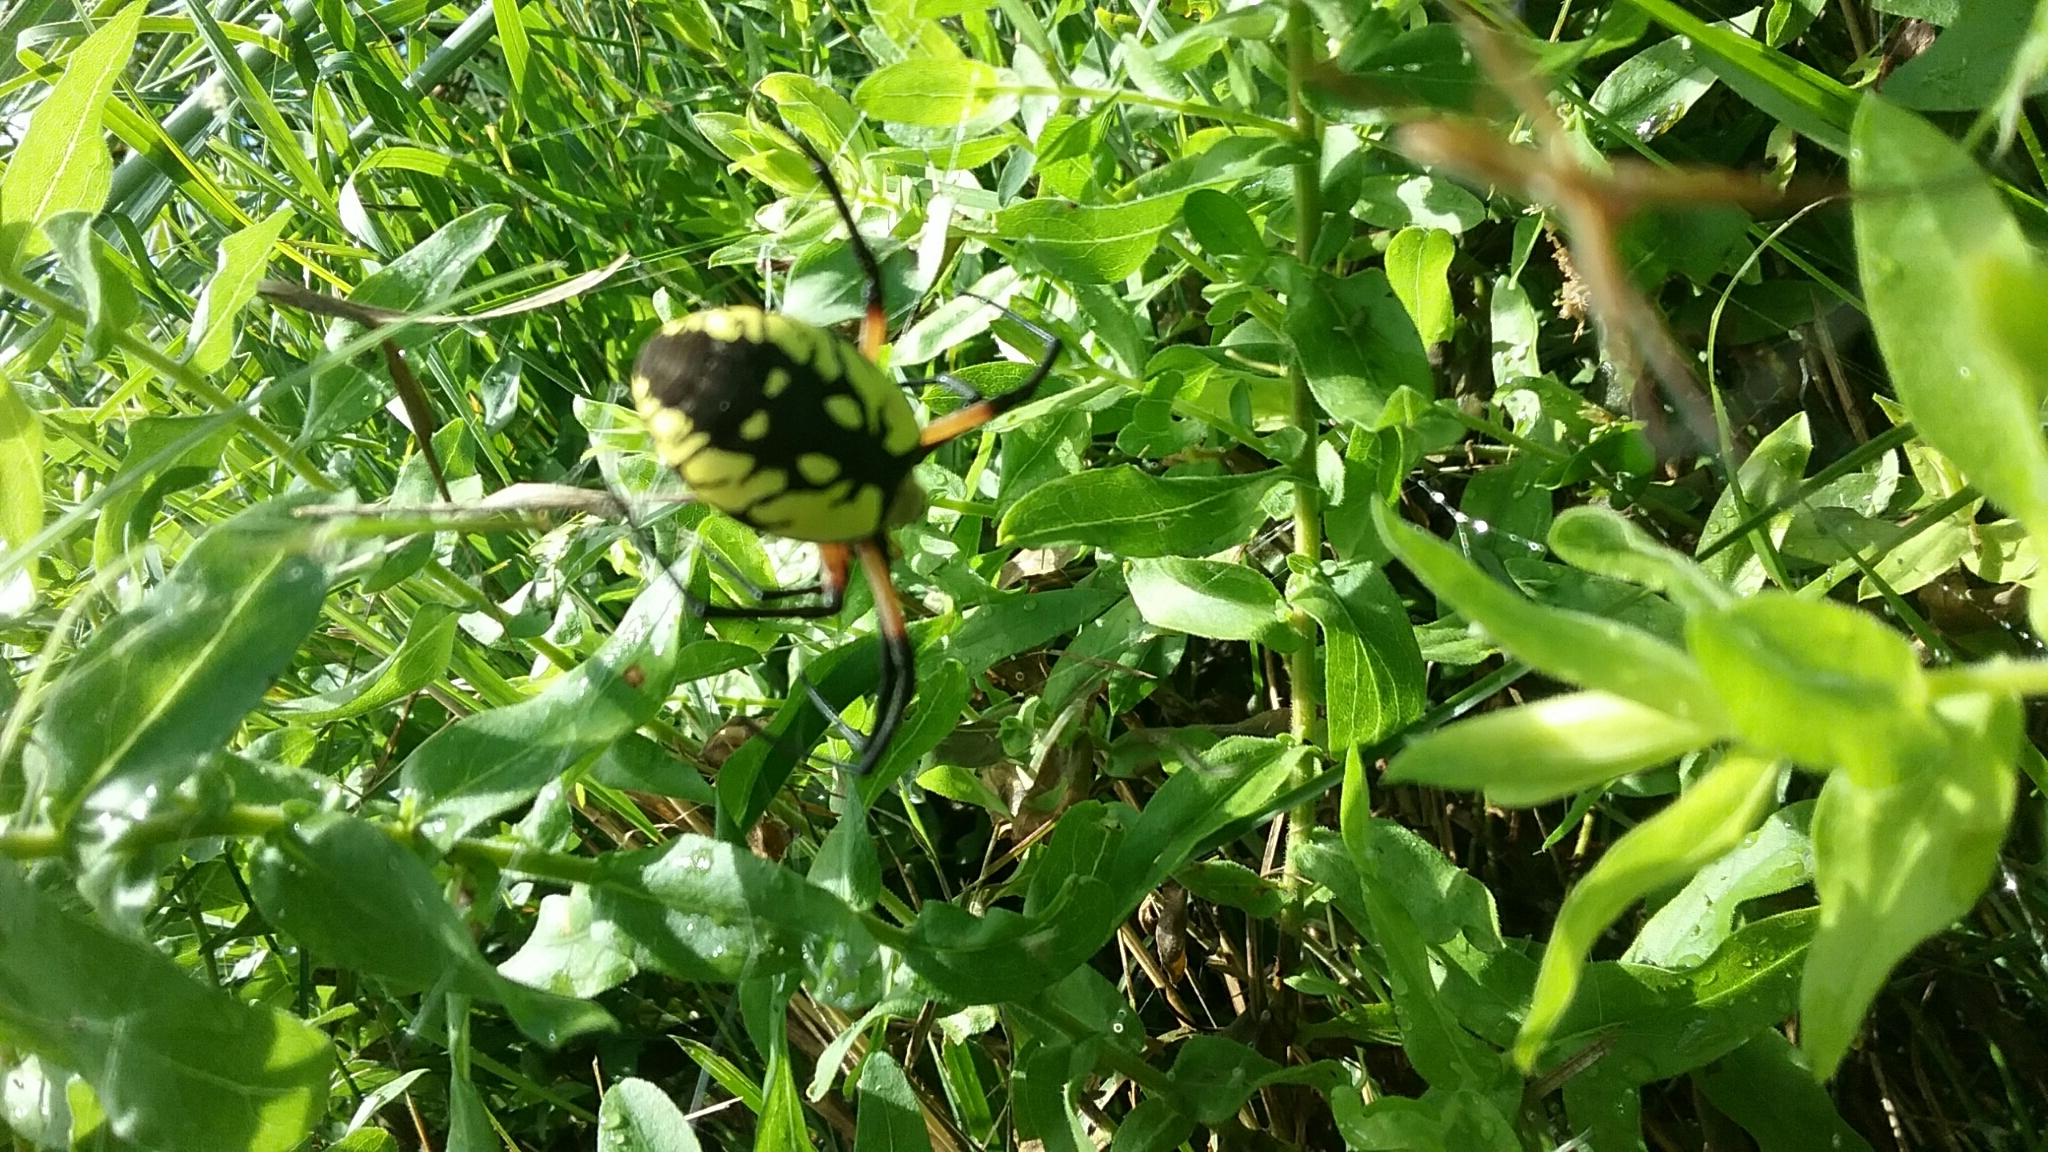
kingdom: Animalia
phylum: Arthropoda
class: Arachnida
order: Araneae
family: Araneidae
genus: Argiope
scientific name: Argiope aurantia
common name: Orb weavers
